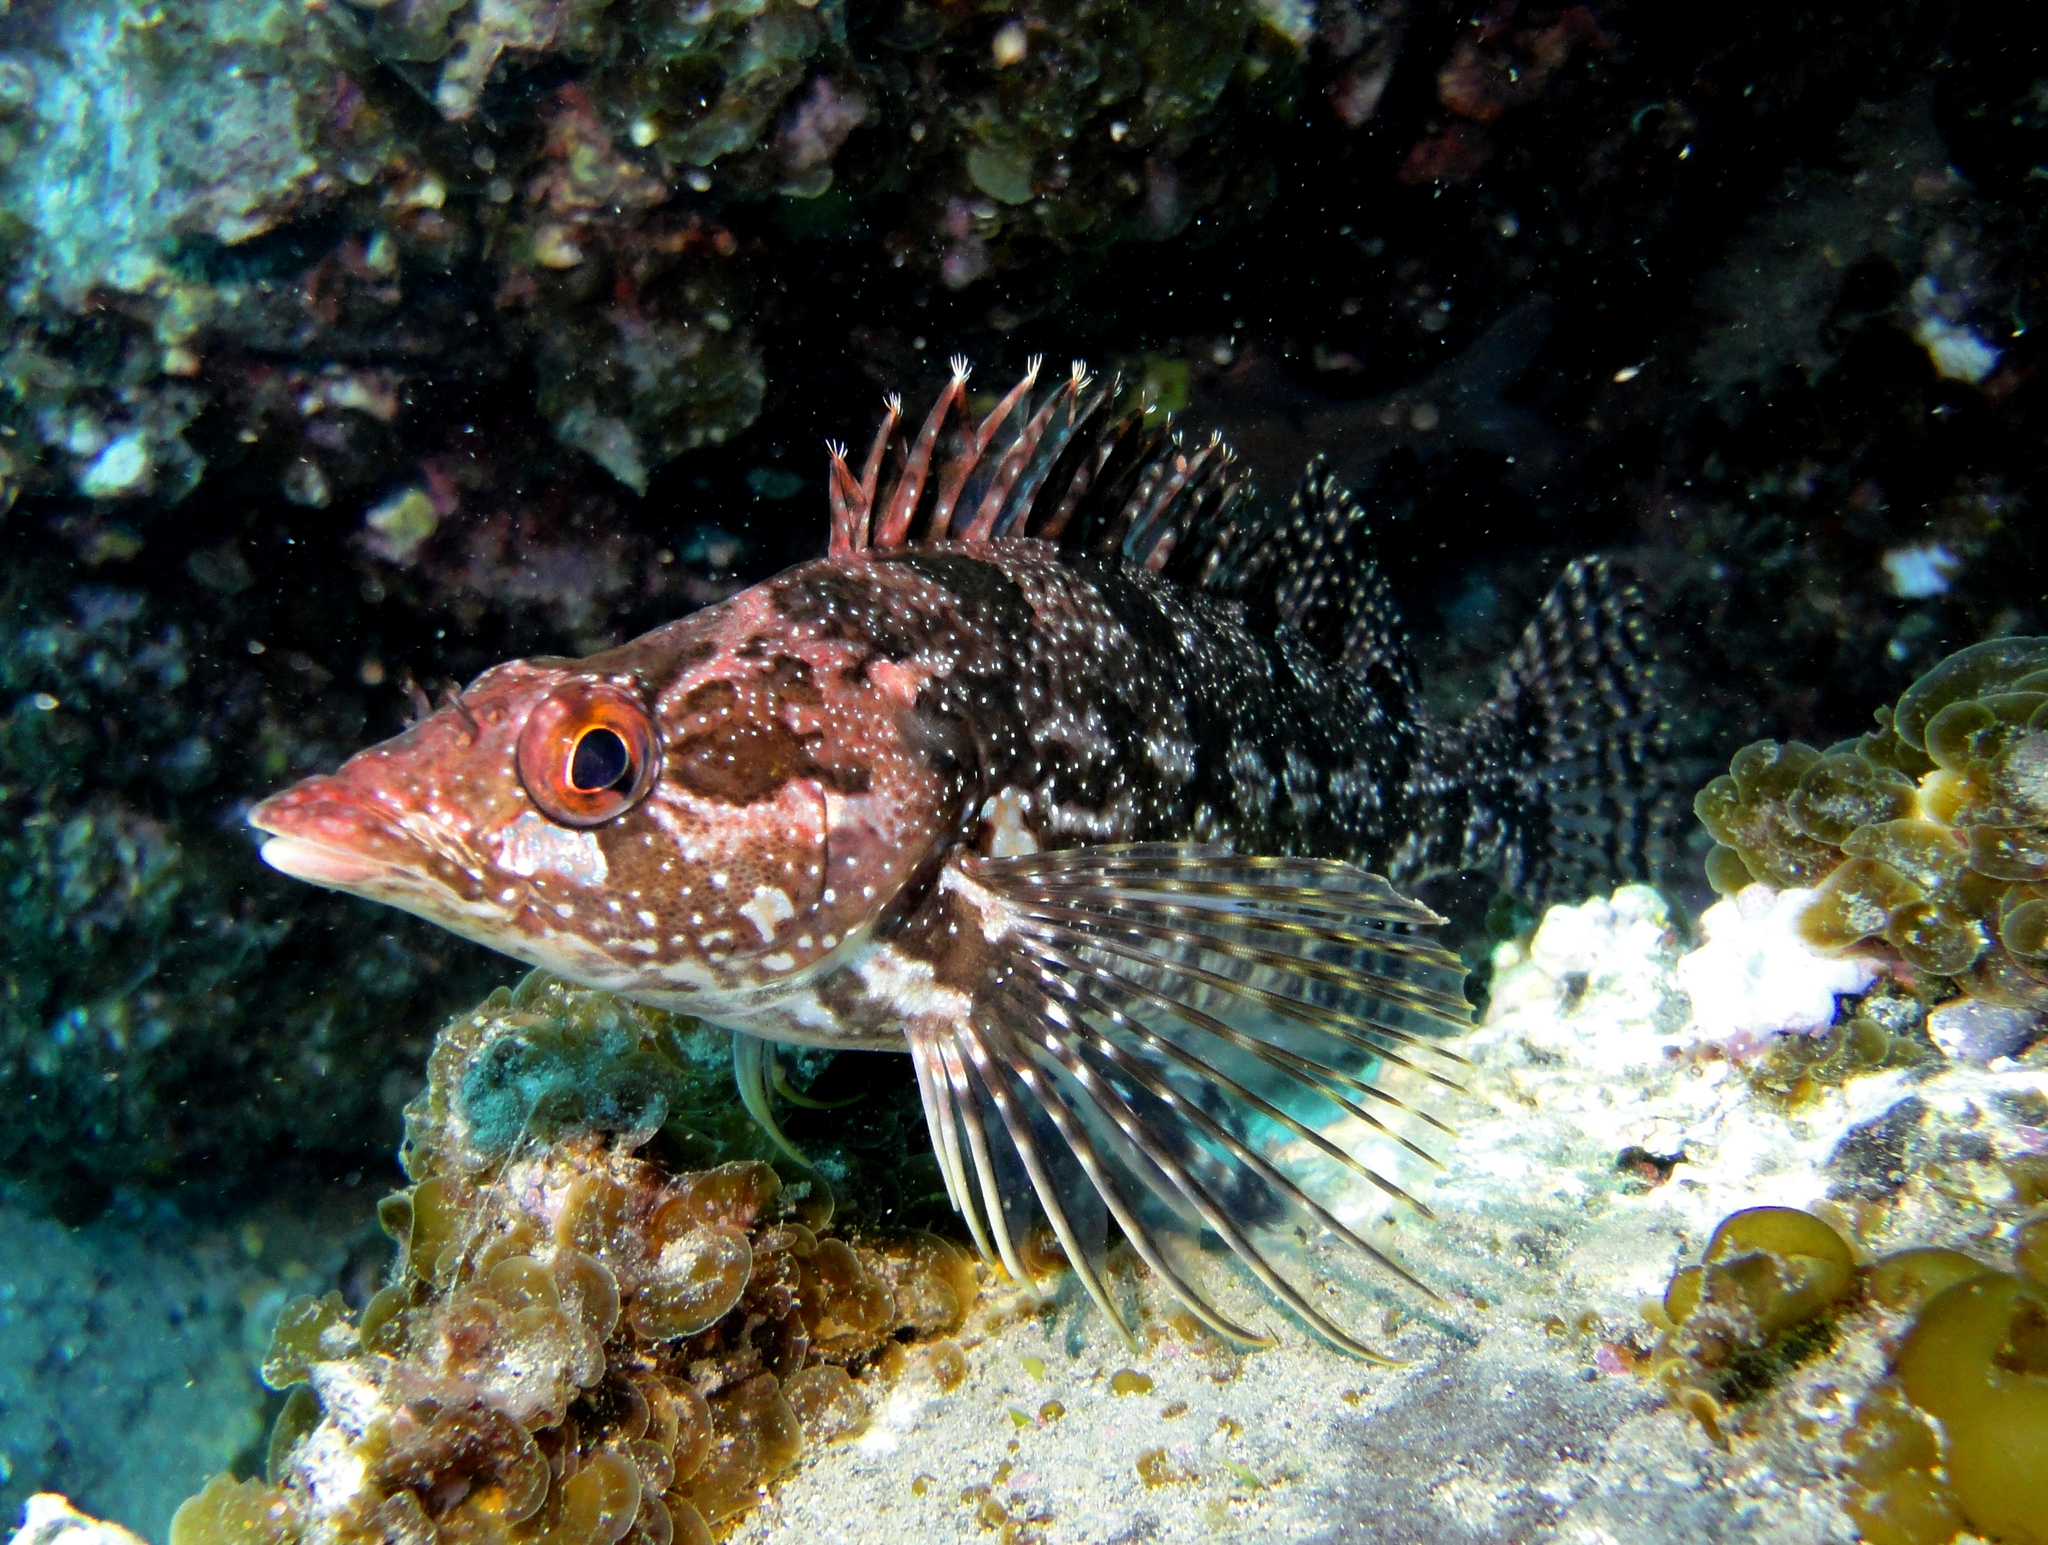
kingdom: Animalia
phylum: Chordata
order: Perciformes
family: Chironemidae
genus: Chironemus
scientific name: Chironemus delfini
